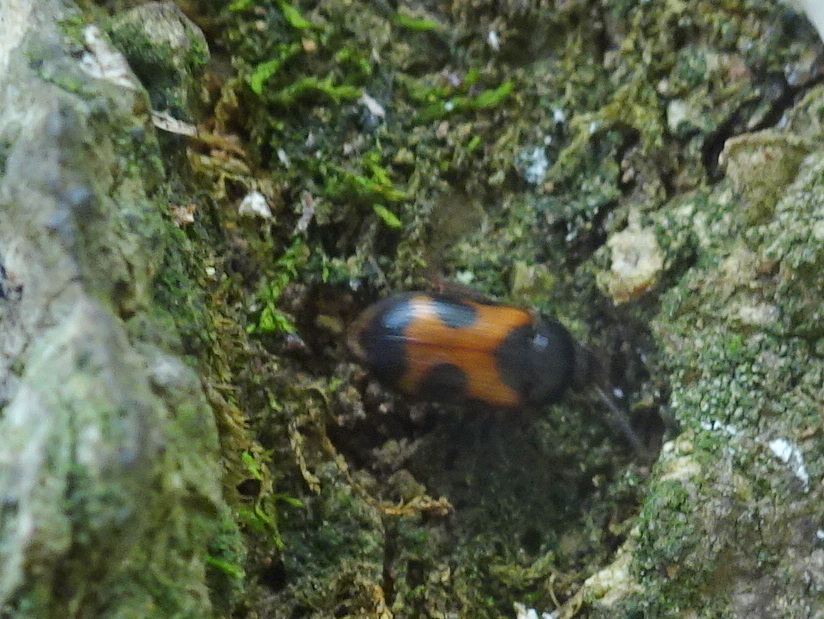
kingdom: Animalia
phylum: Arthropoda
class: Insecta
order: Coleoptera
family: Mycetophagidae
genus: Mycetophagus
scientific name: Mycetophagus punctatus
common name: Hairy fungus beetle
